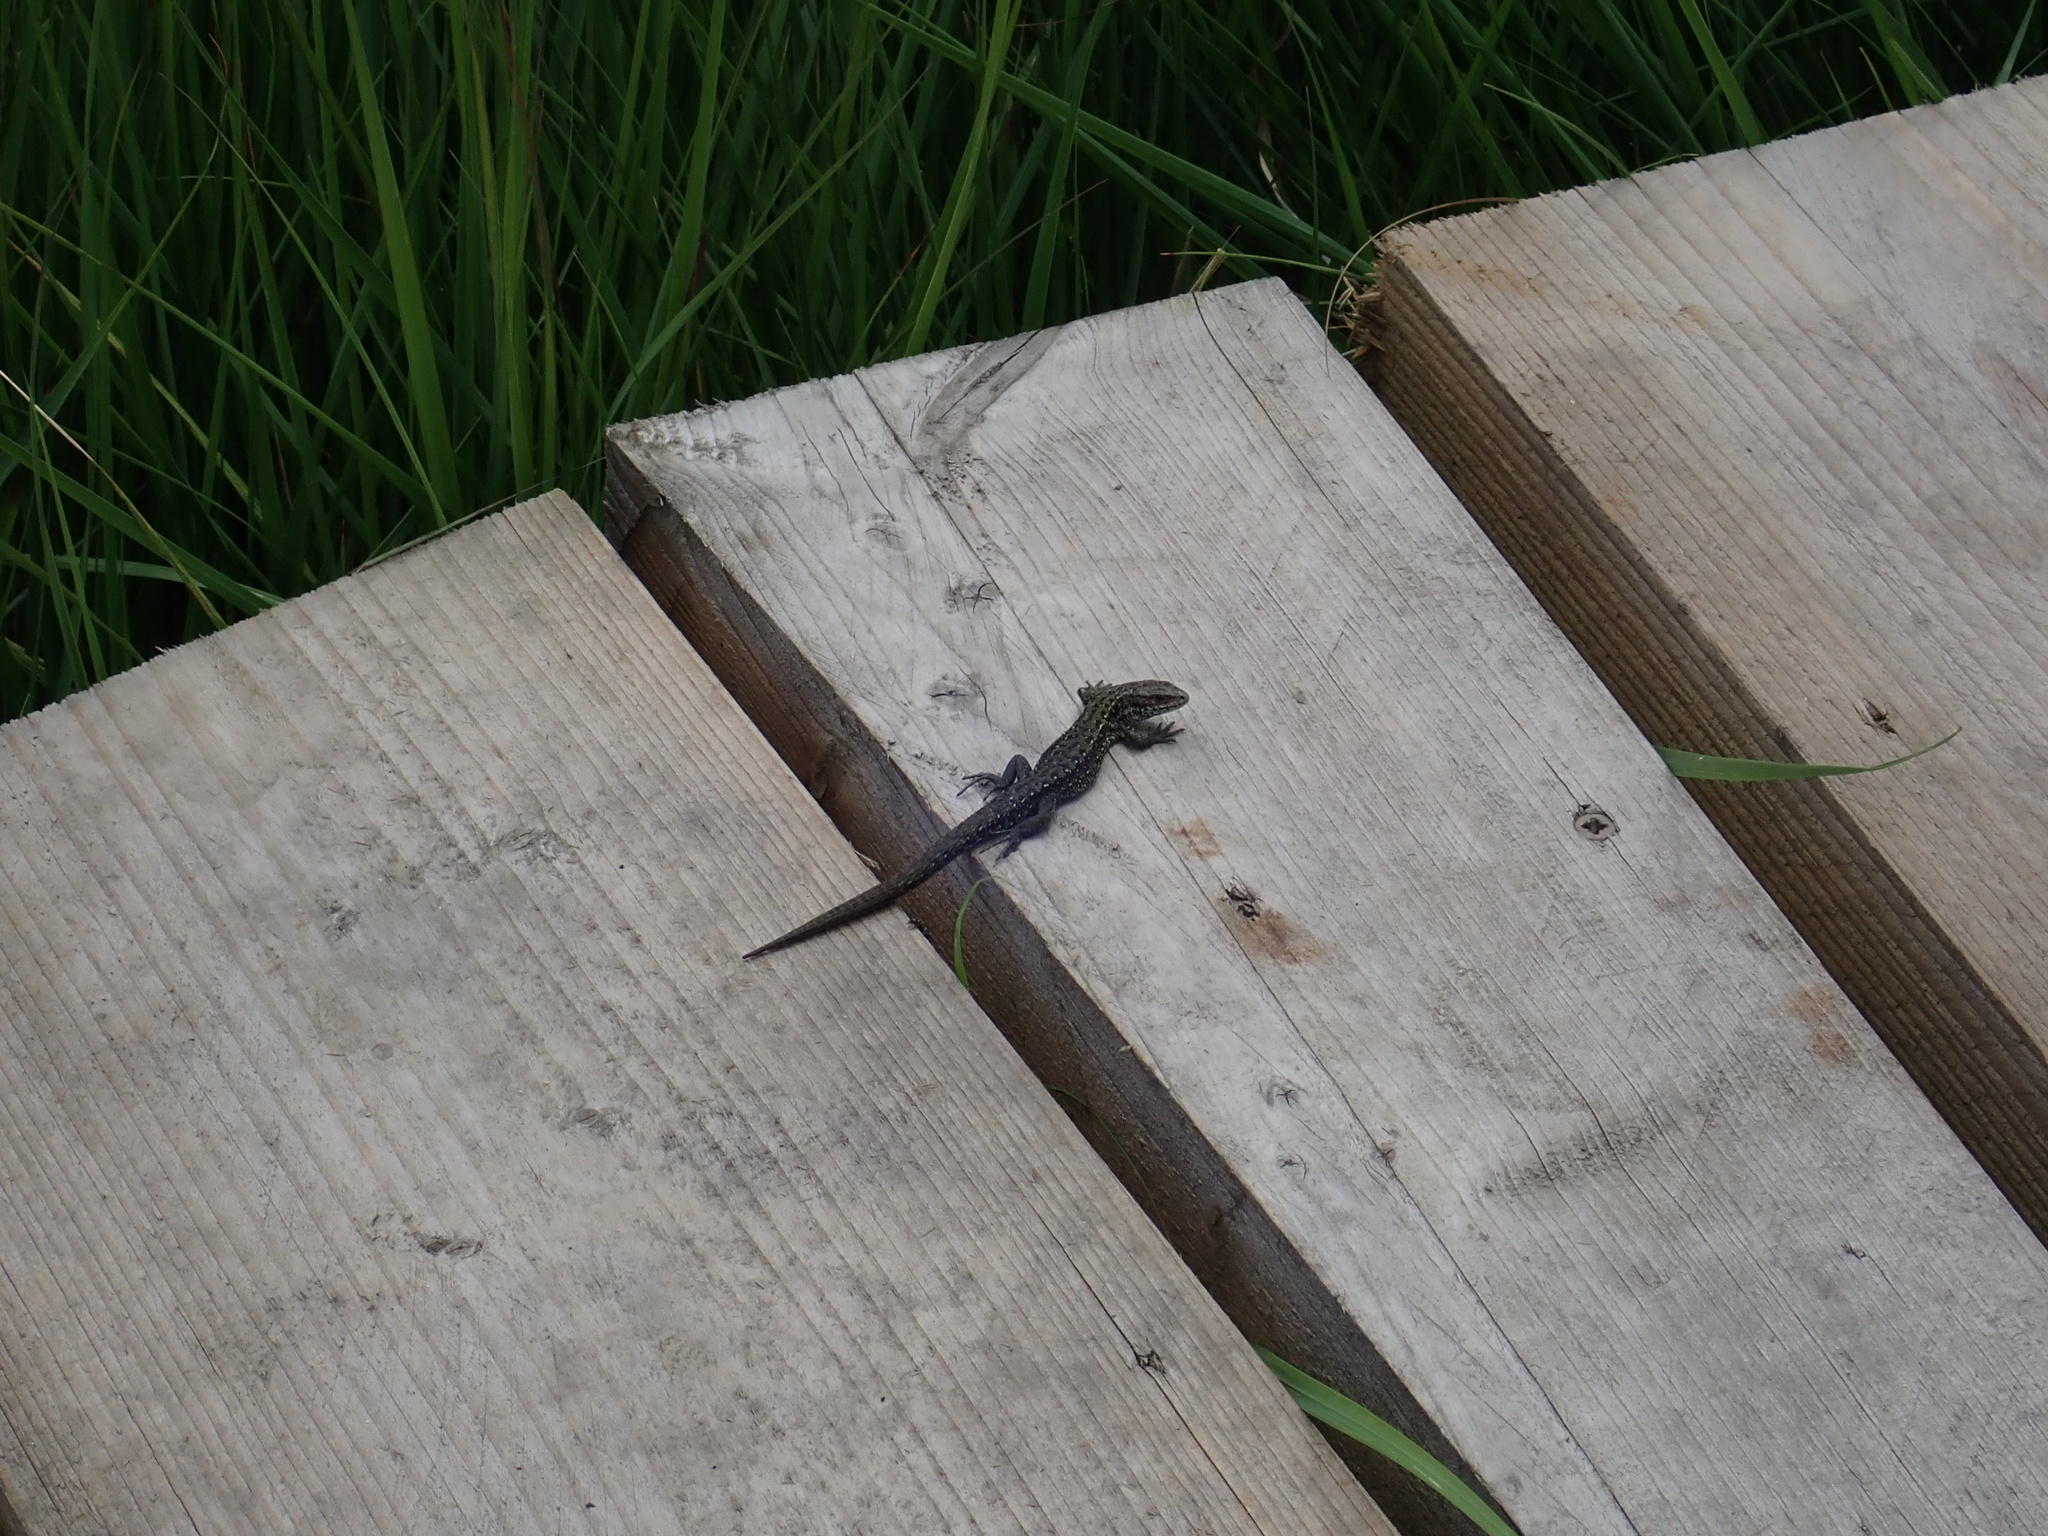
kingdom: Animalia
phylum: Chordata
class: Squamata
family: Lacertidae
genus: Zootoca
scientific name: Zootoca vivipara
